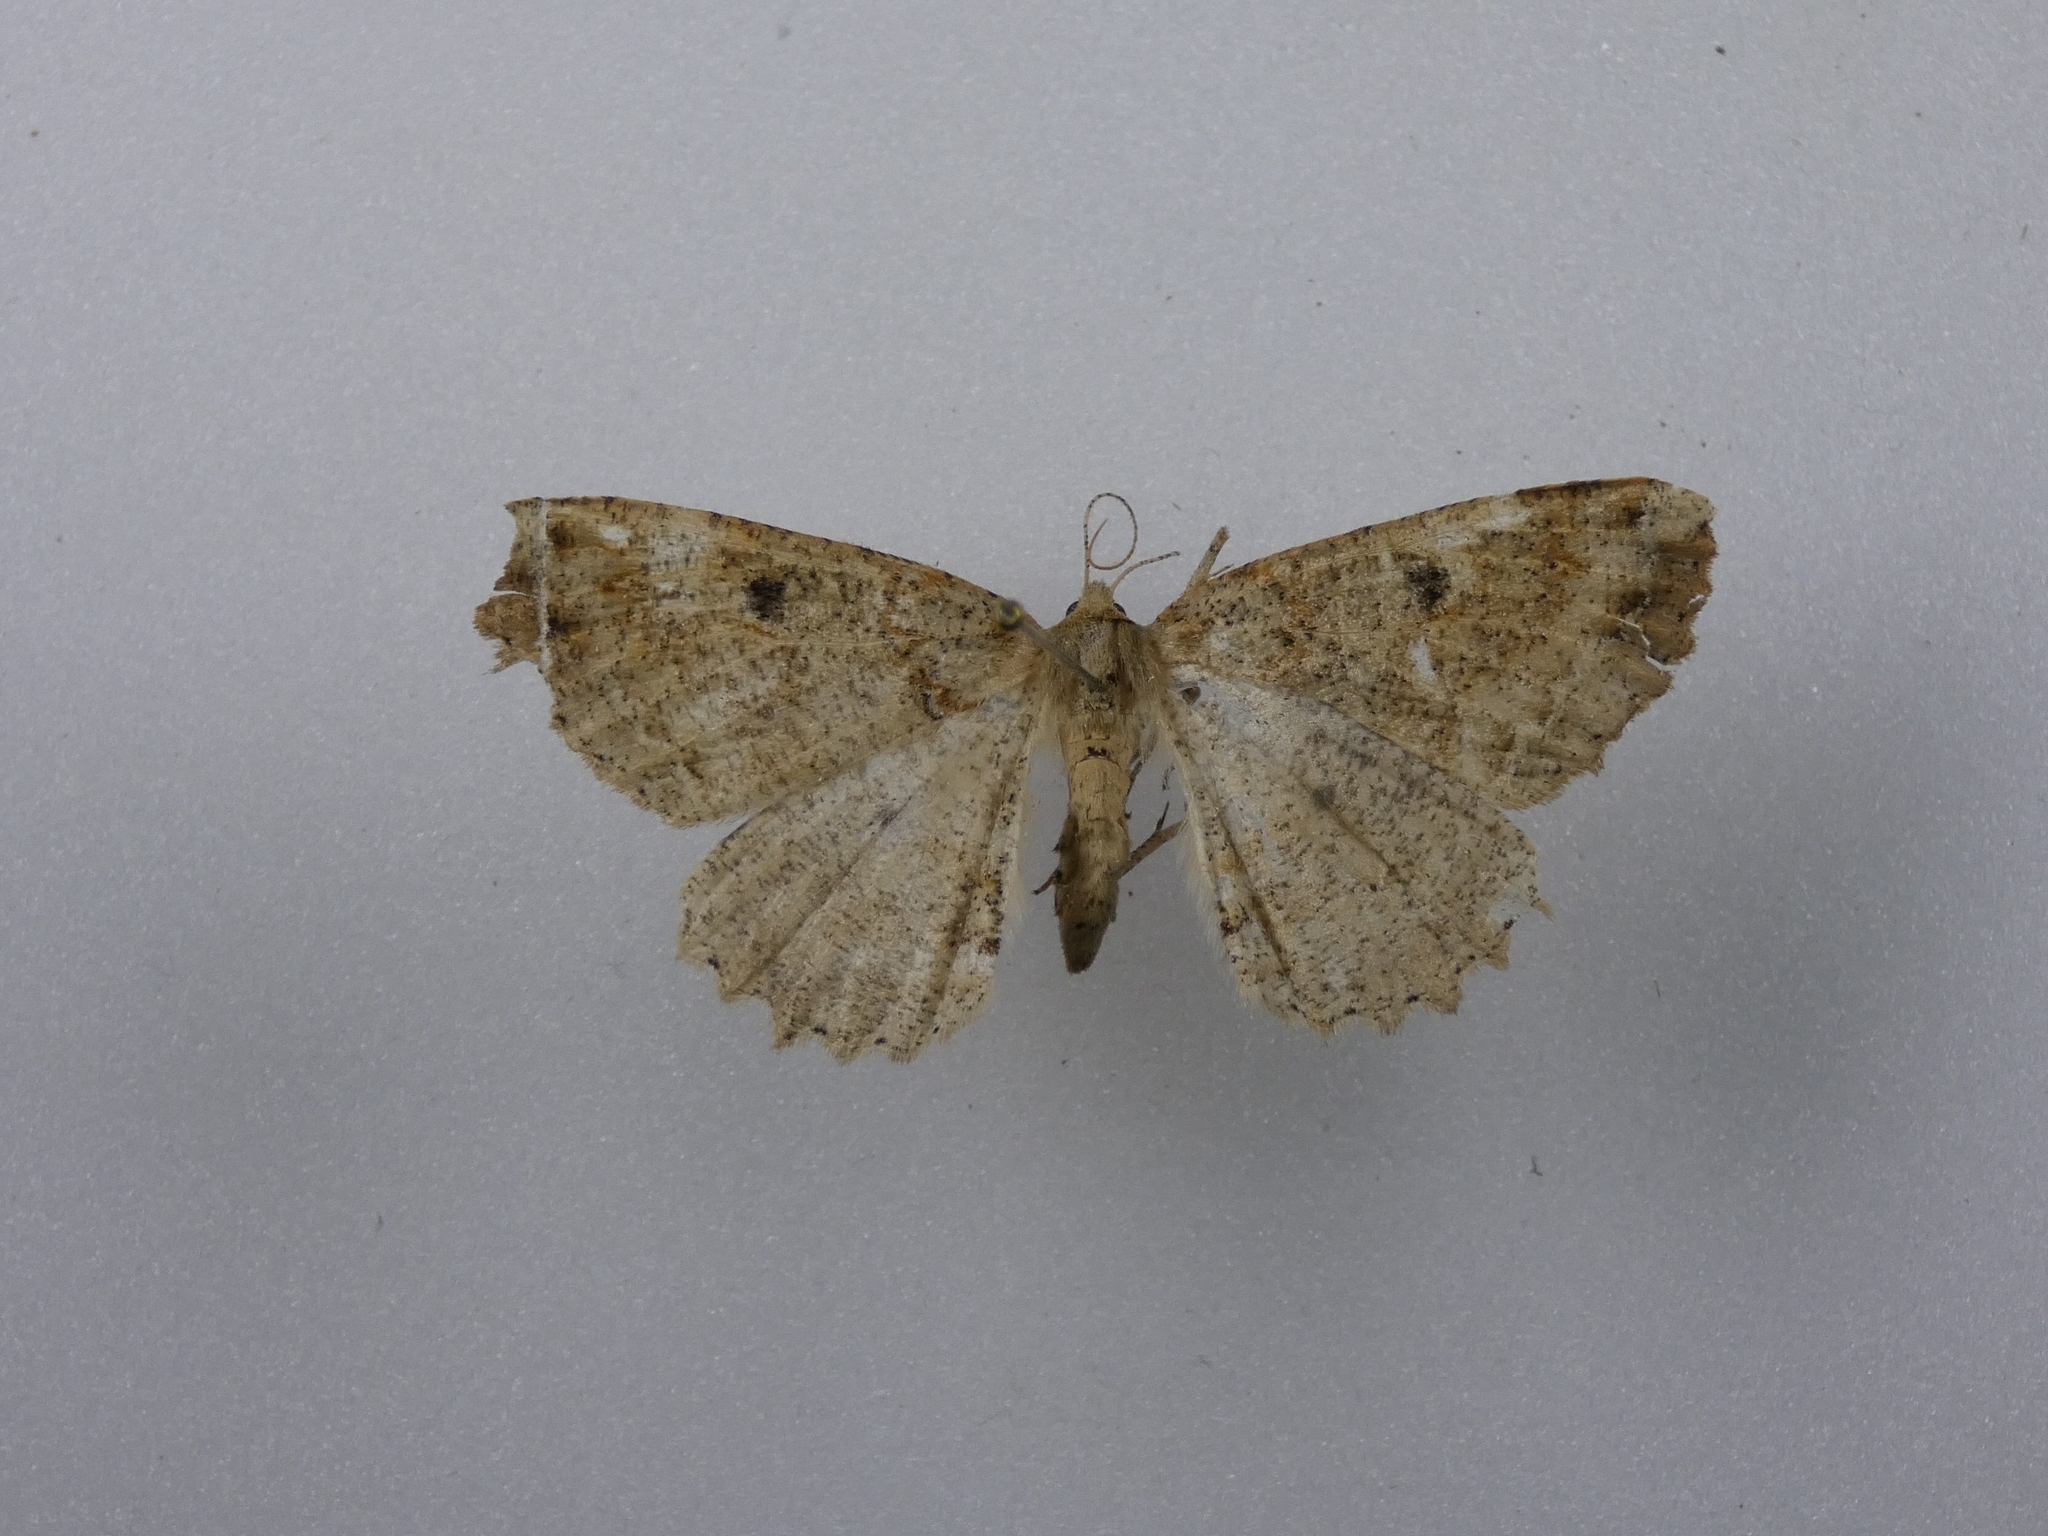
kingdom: Animalia
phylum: Arthropoda
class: Insecta
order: Lepidoptera
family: Geometridae
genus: Cleora
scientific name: Cleora scriptaria
